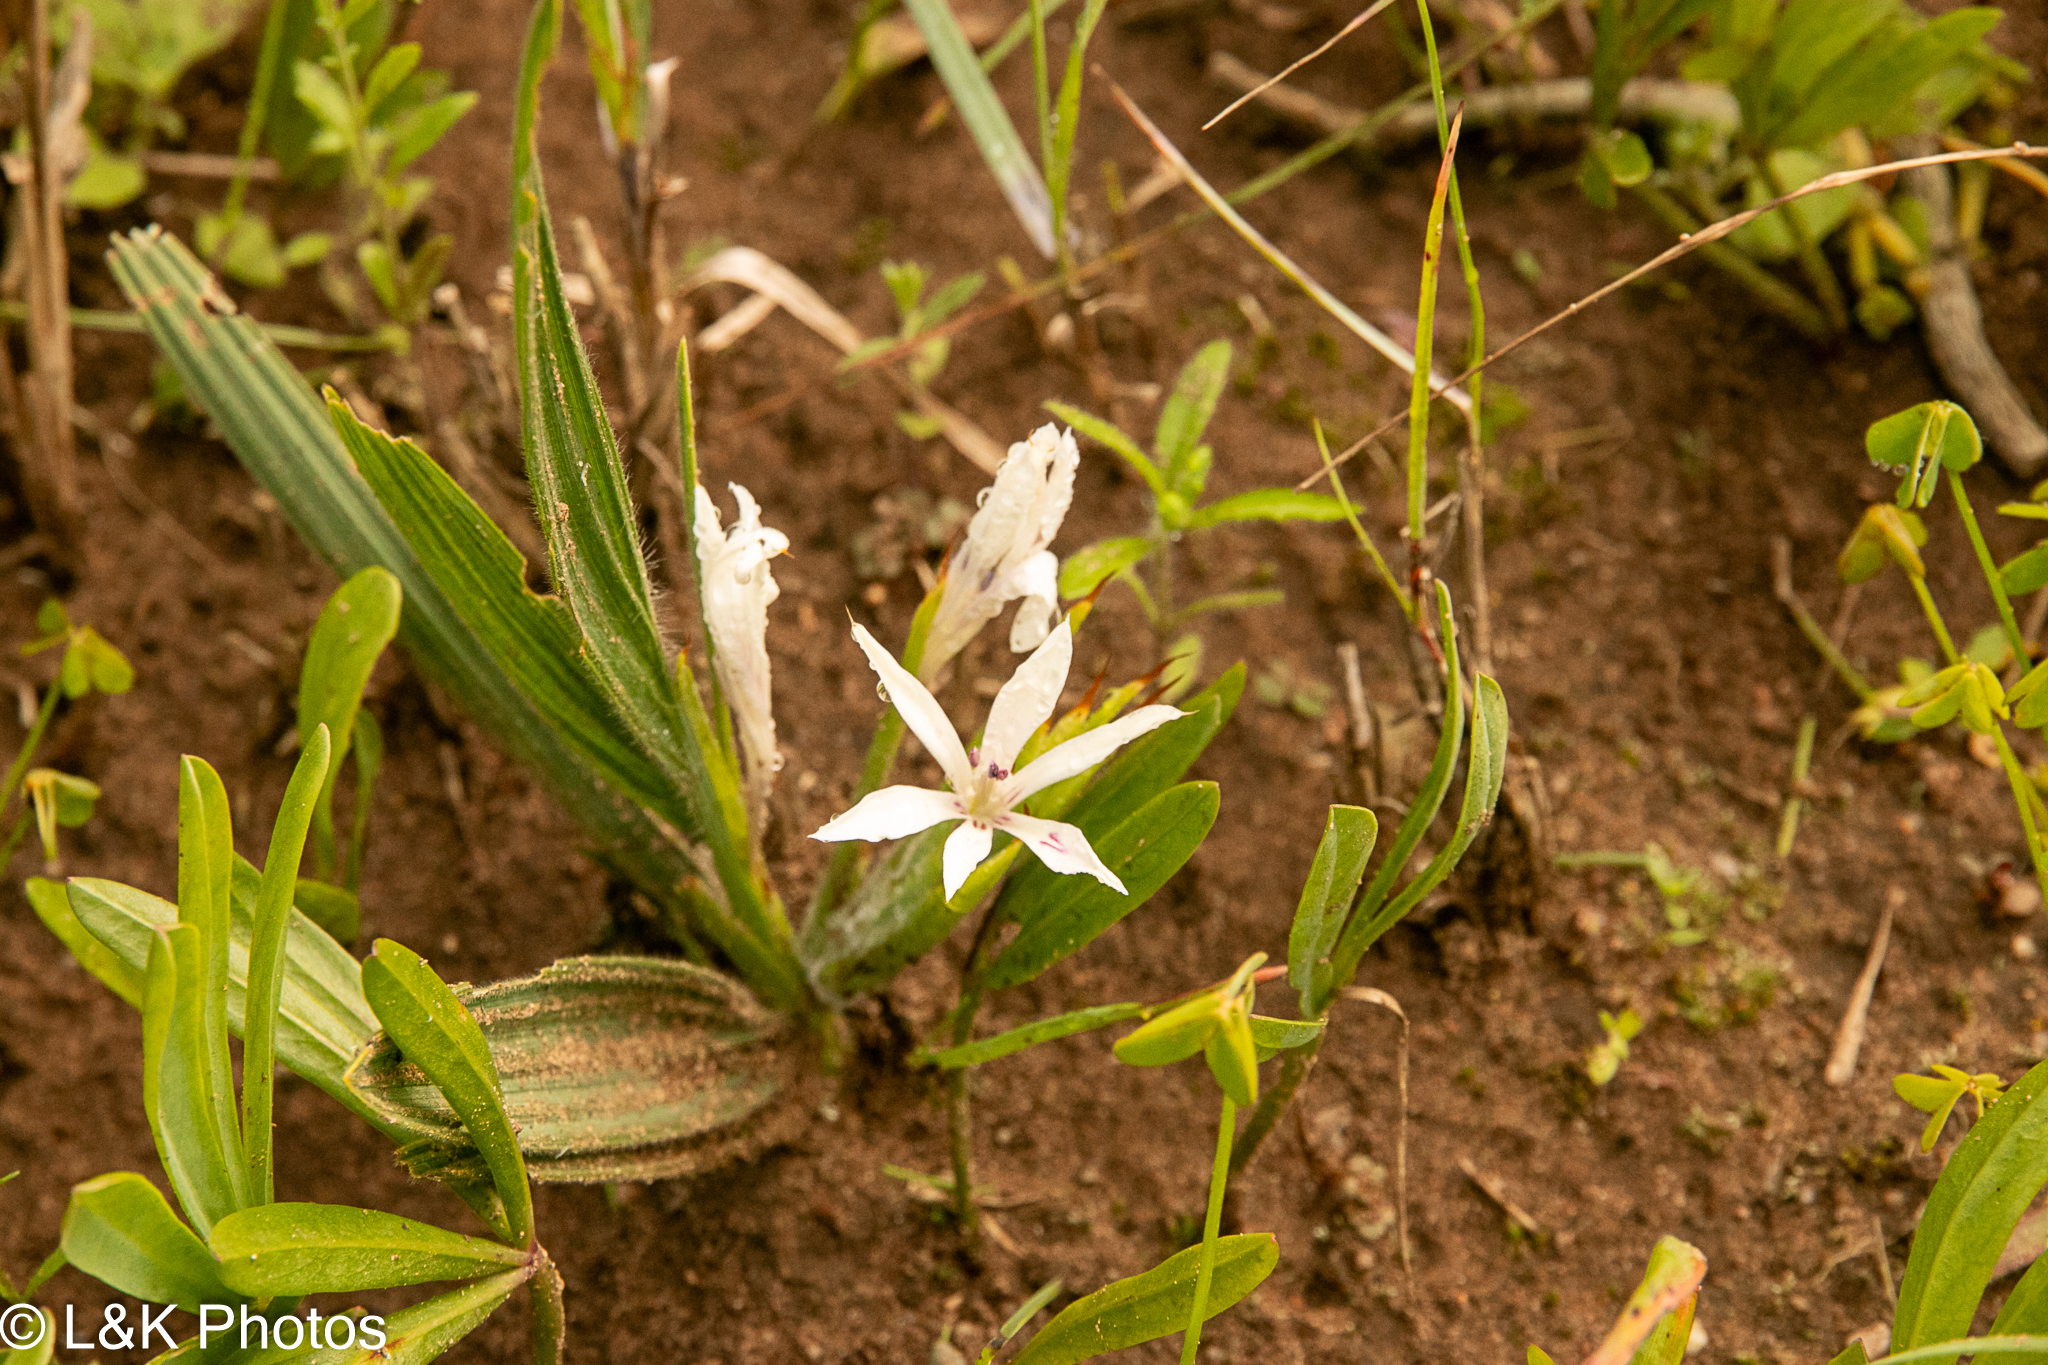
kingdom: Plantae
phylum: Tracheophyta
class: Liliopsida
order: Asparagales
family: Iridaceae
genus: Babiana
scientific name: Babiana tubiflora
